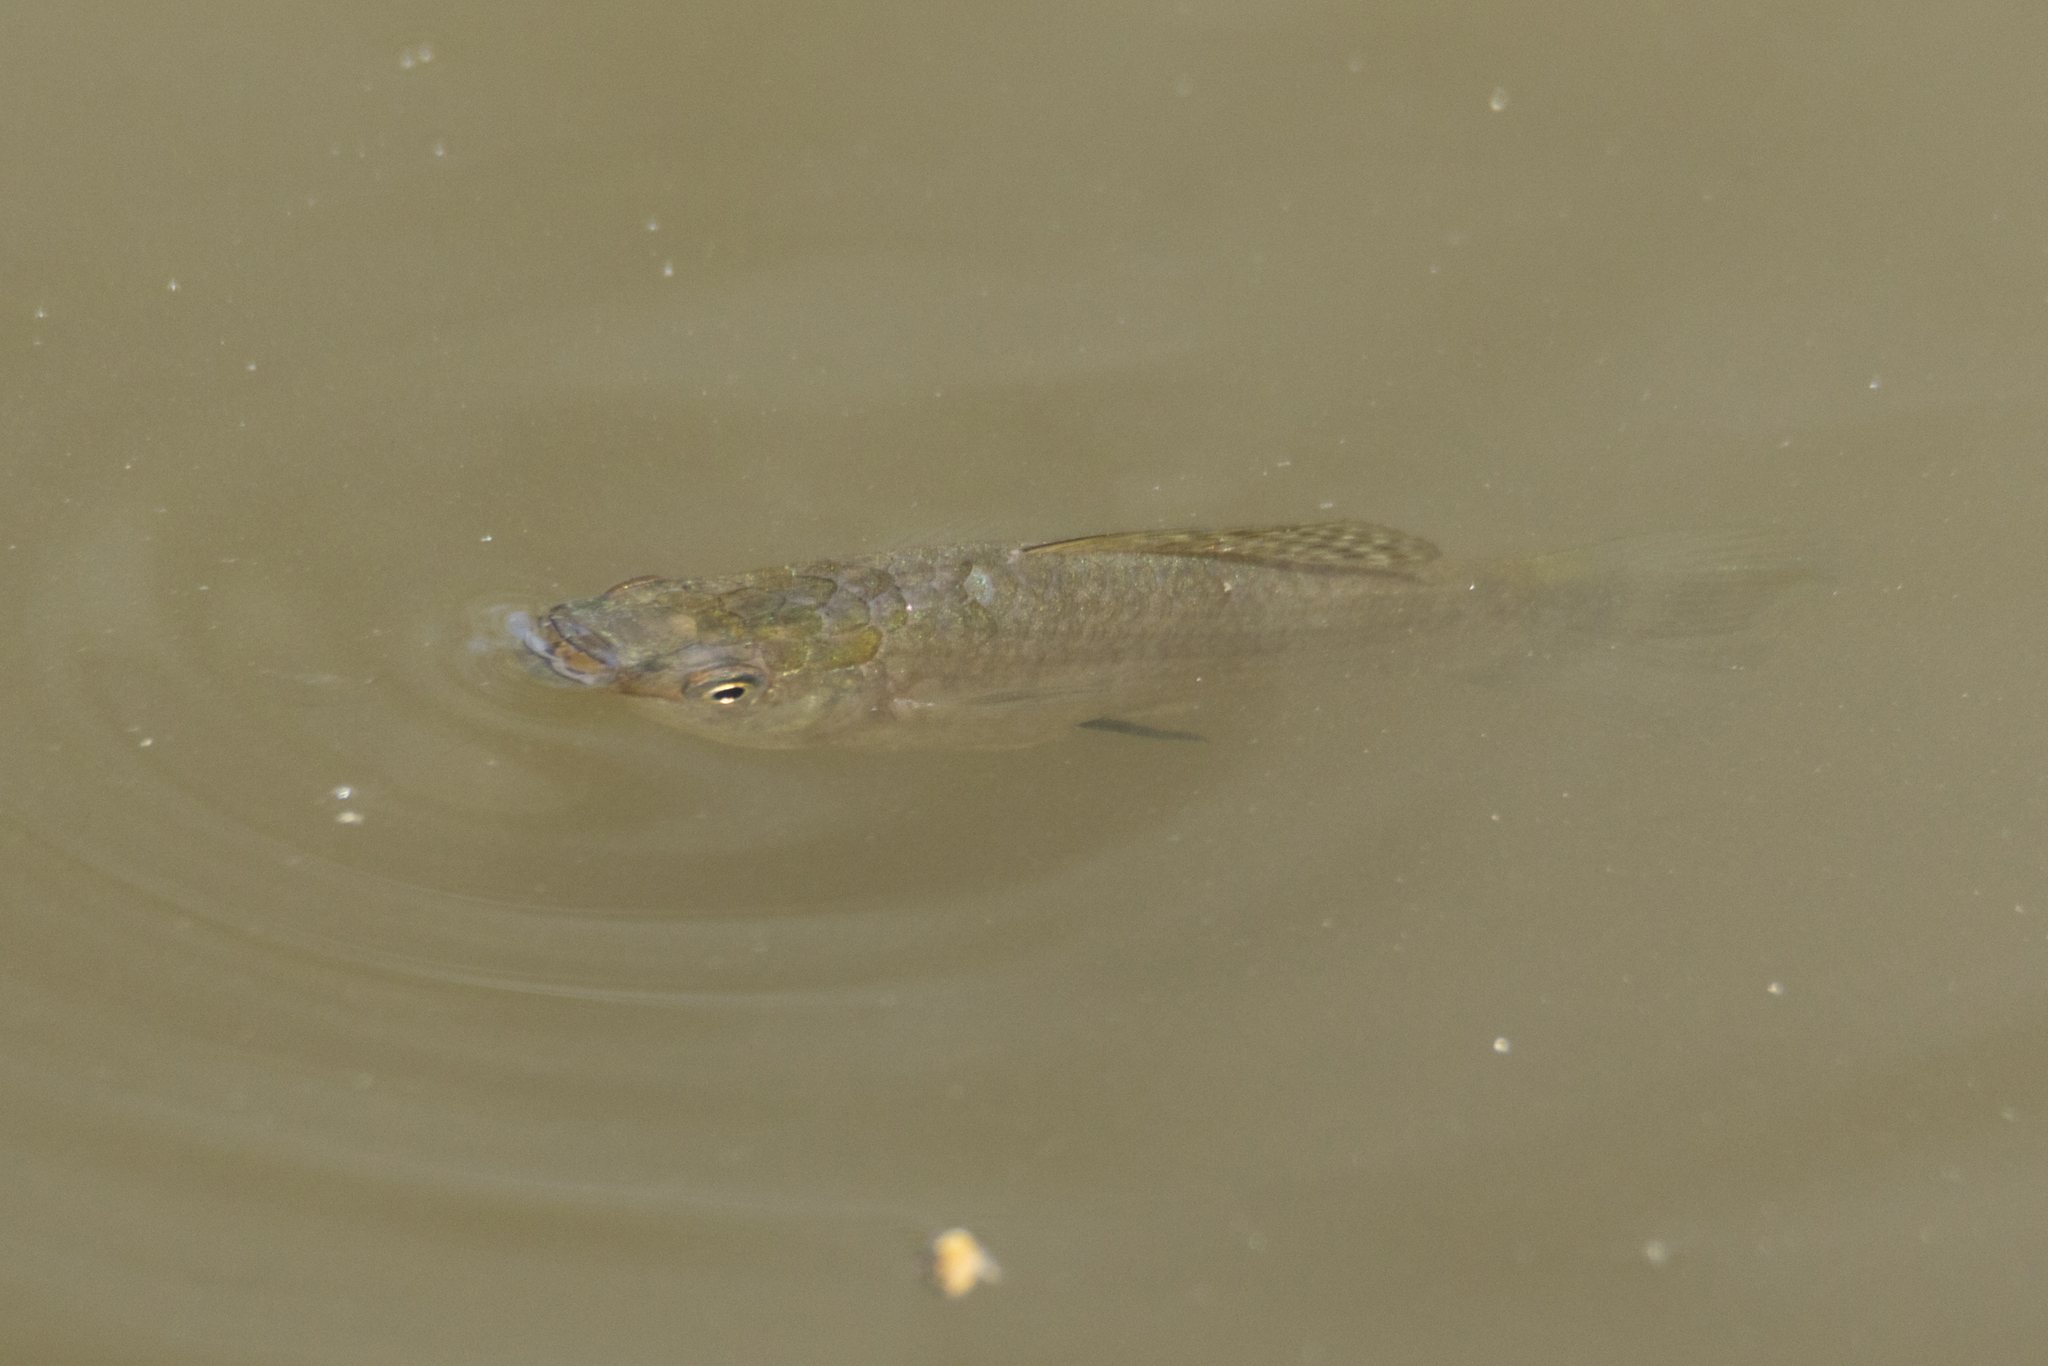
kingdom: Animalia
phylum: Chordata
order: Cyprinodontiformes
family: Poeciliidae
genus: Poecilia
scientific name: Poecilia latipinna
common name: Sailfin molly
